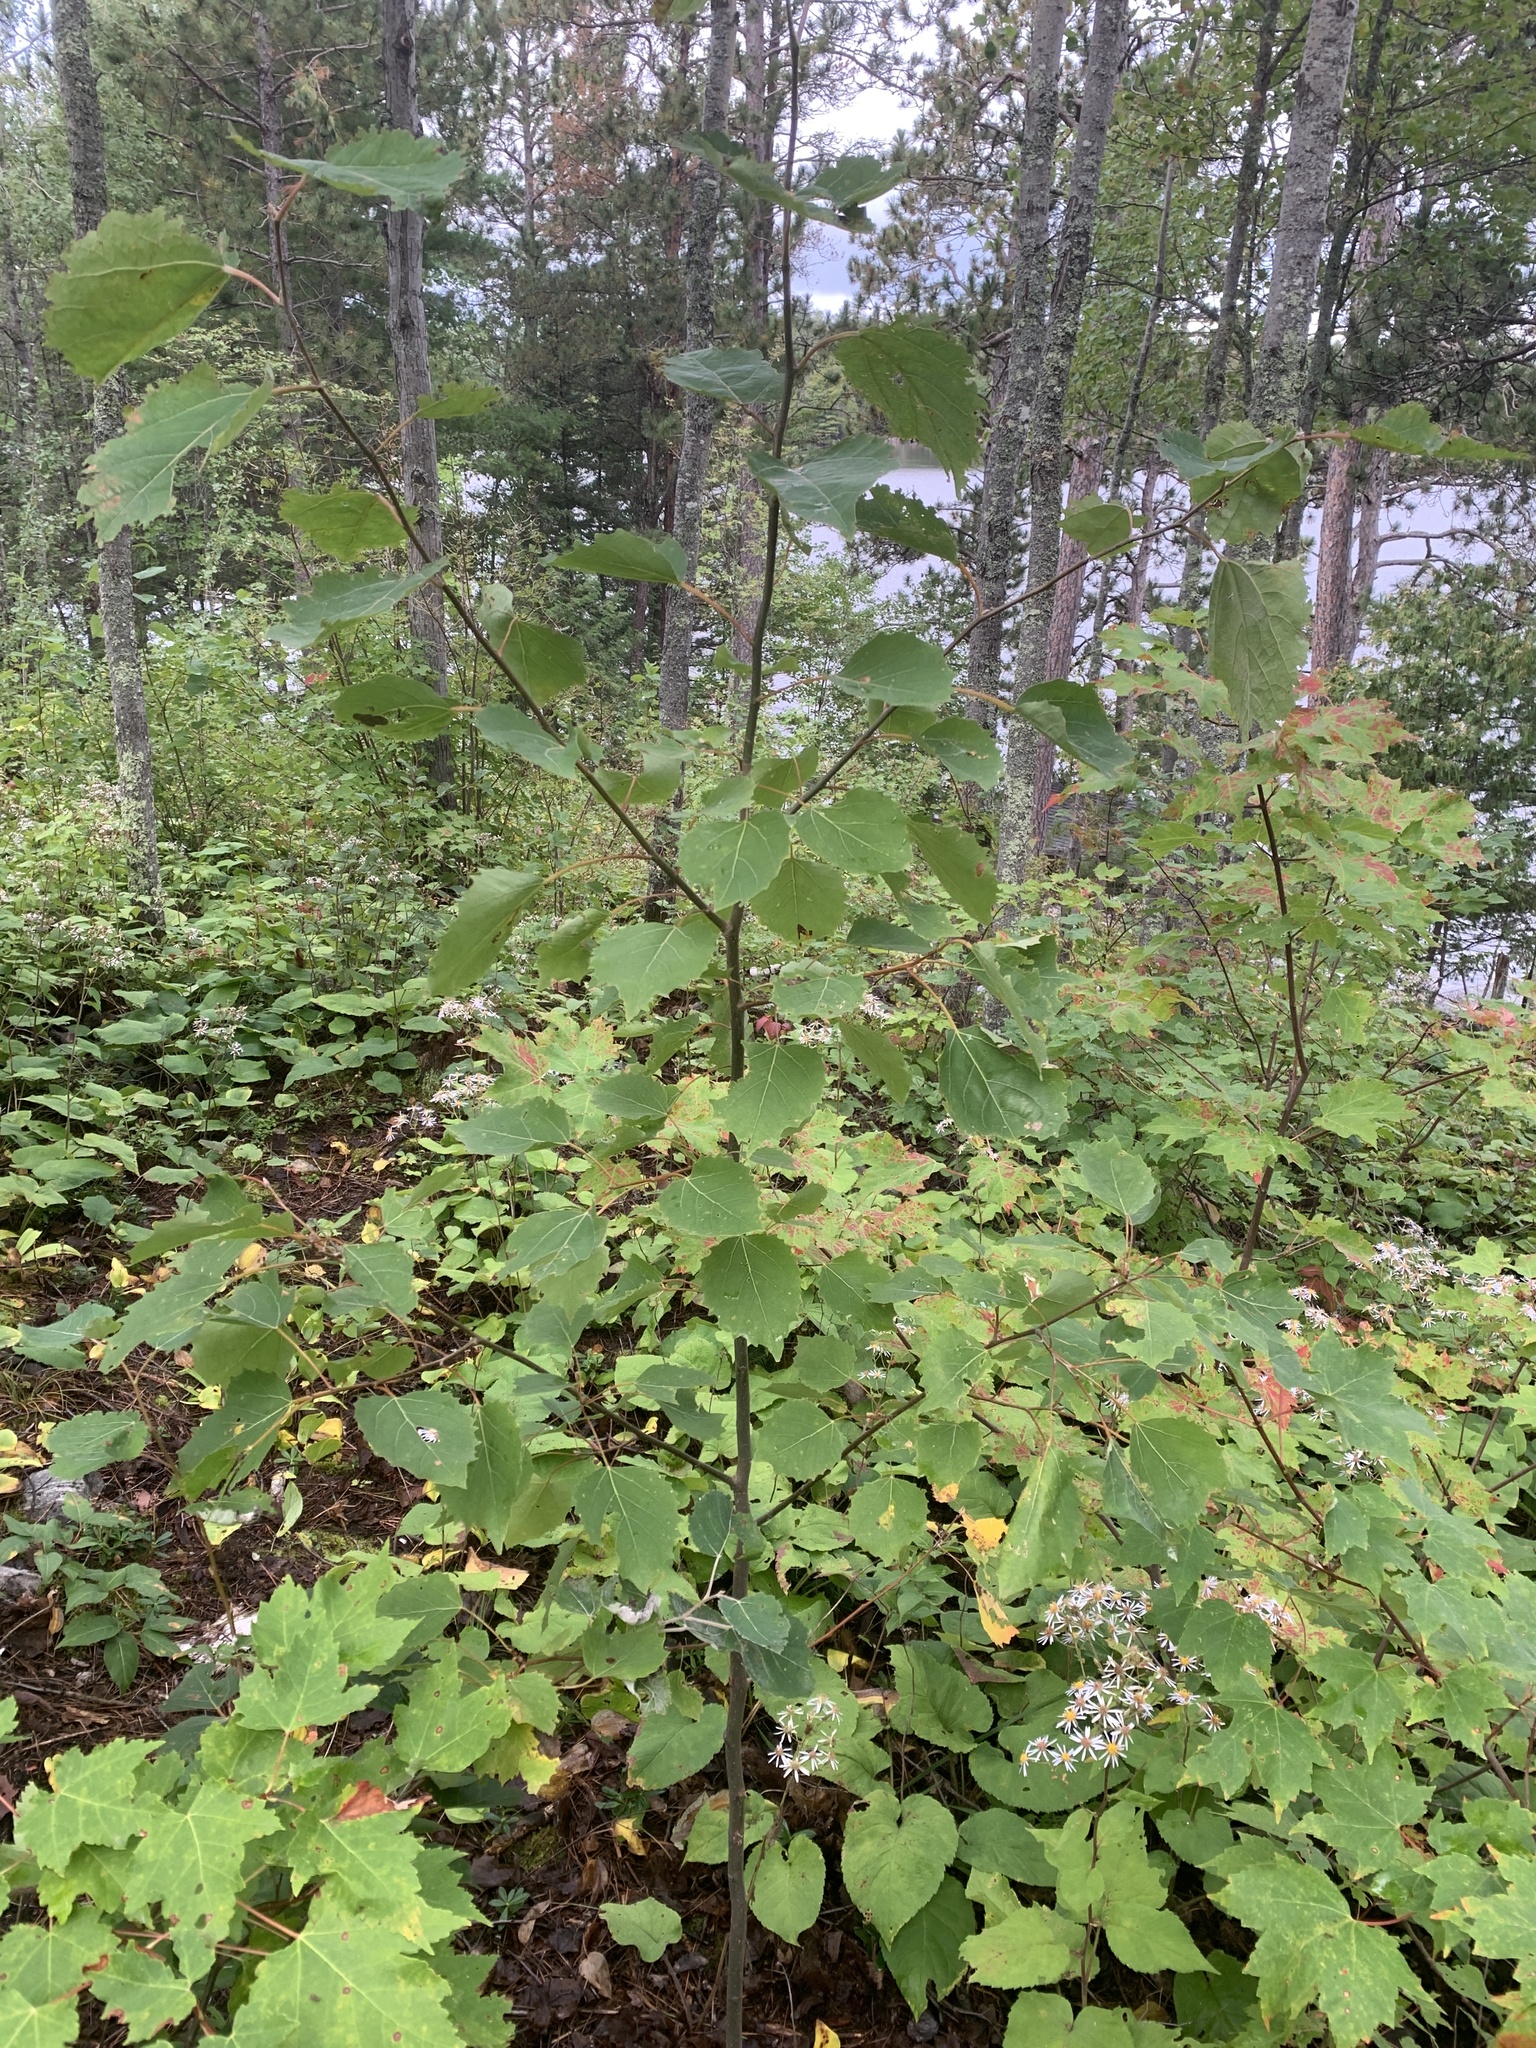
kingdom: Plantae
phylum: Tracheophyta
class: Magnoliopsida
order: Malpighiales
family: Salicaceae
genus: Populus
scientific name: Populus grandidentata
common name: Bigtooth aspen
